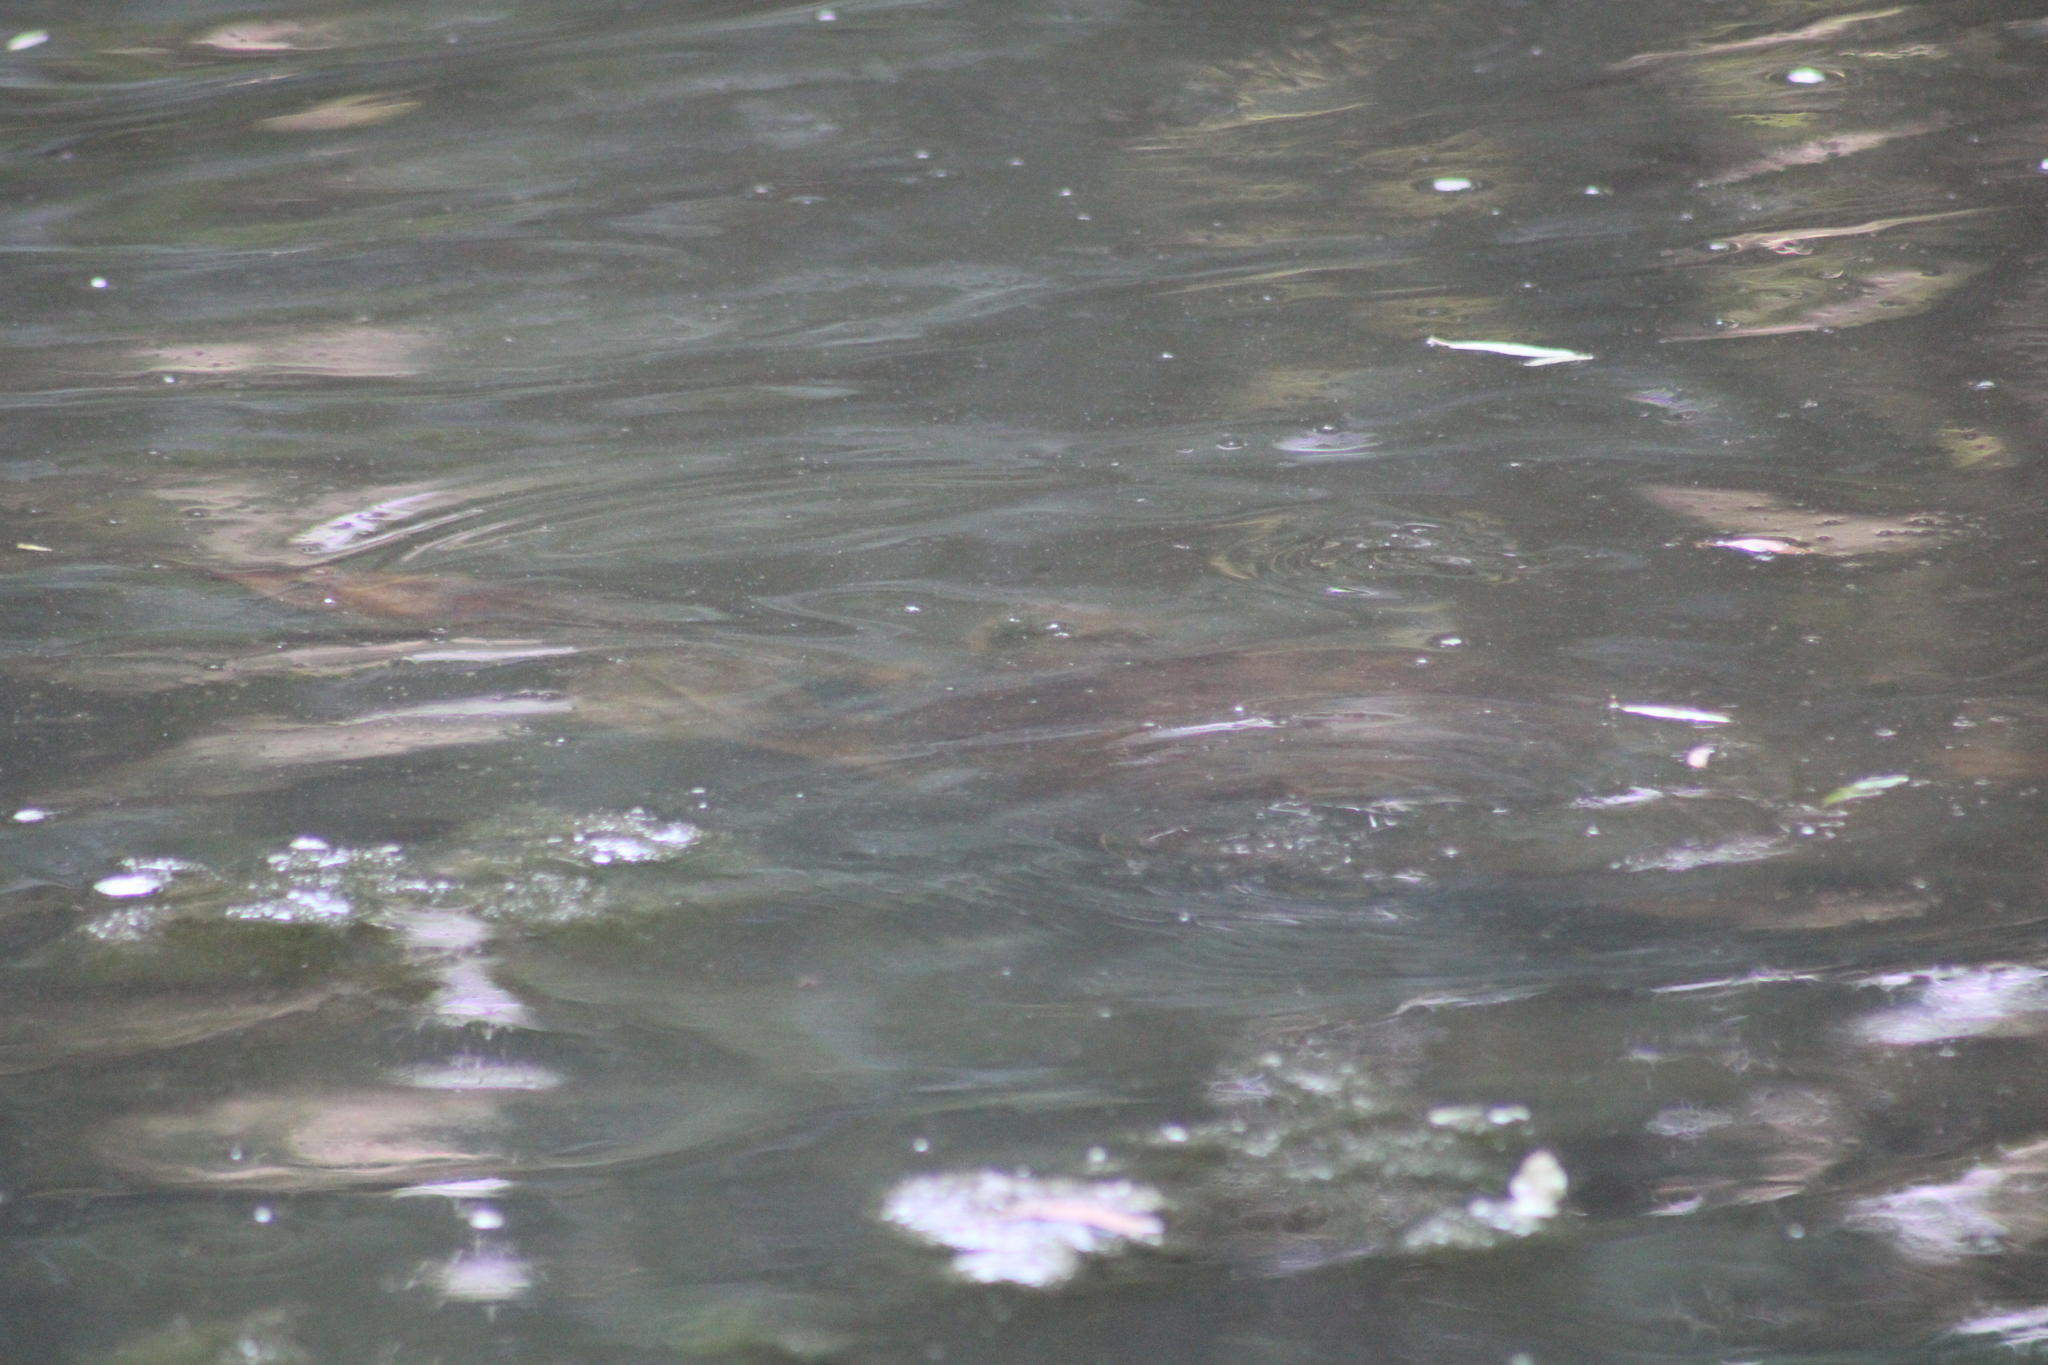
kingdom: Animalia
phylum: Chordata
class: Testudines
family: Trionychidae
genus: Apalone
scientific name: Apalone ferox
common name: Florida softshell turtle
